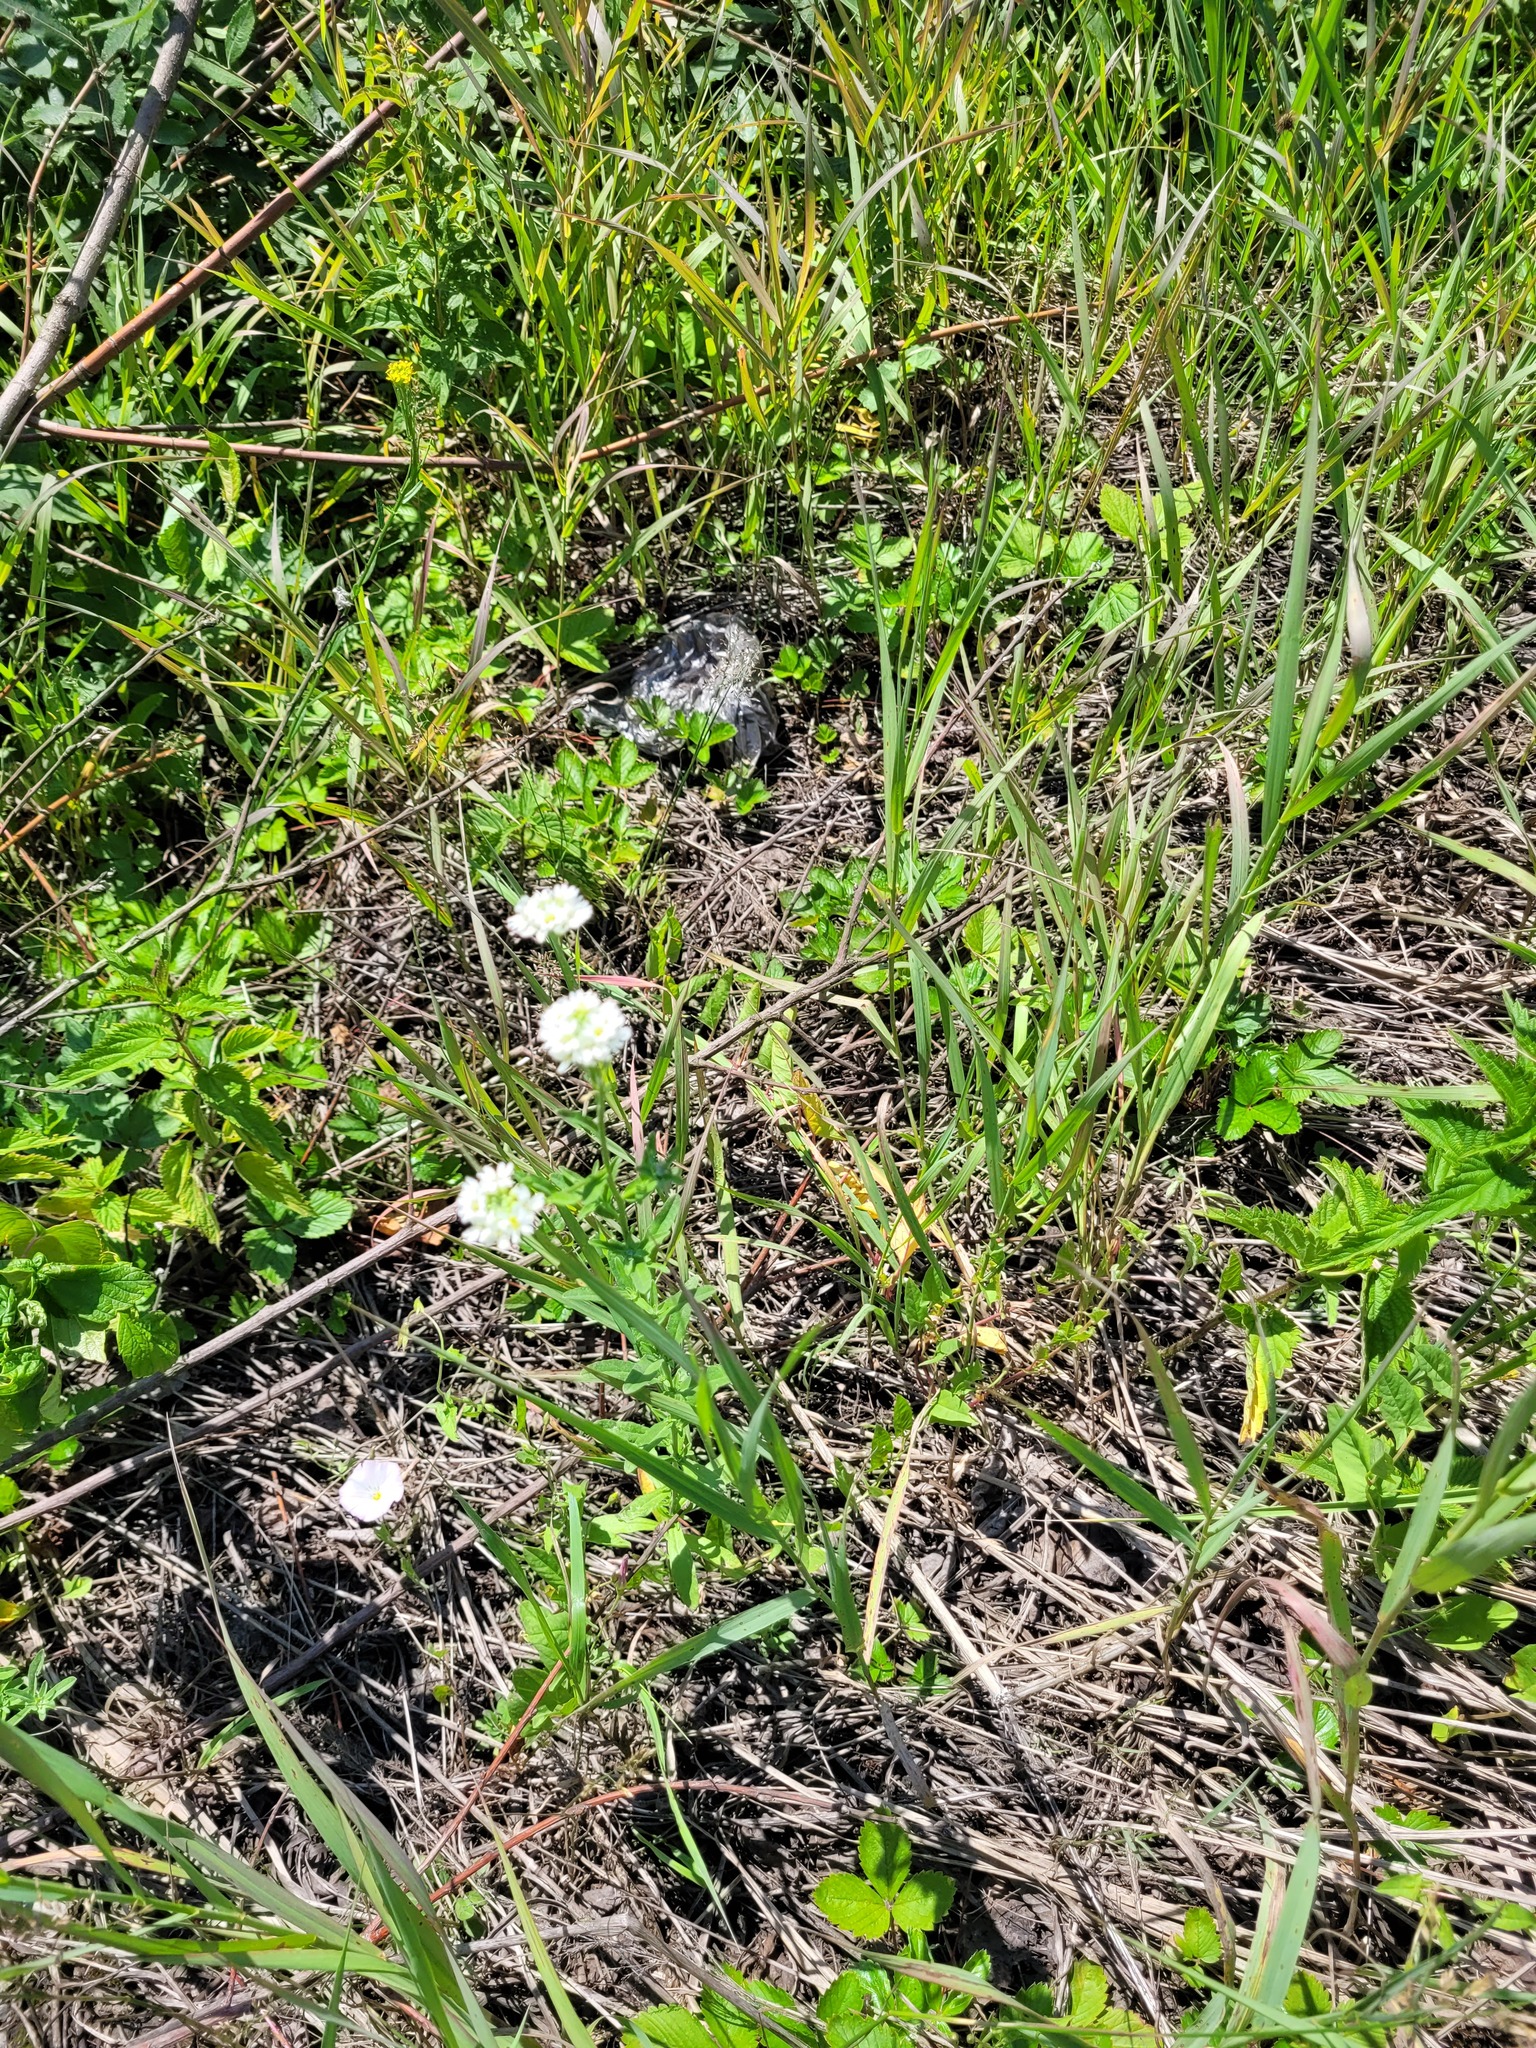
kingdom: Plantae
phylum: Tracheophyta
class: Magnoliopsida
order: Brassicales
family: Brassicaceae
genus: Berteroa
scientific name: Berteroa incana
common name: Hoary alison
